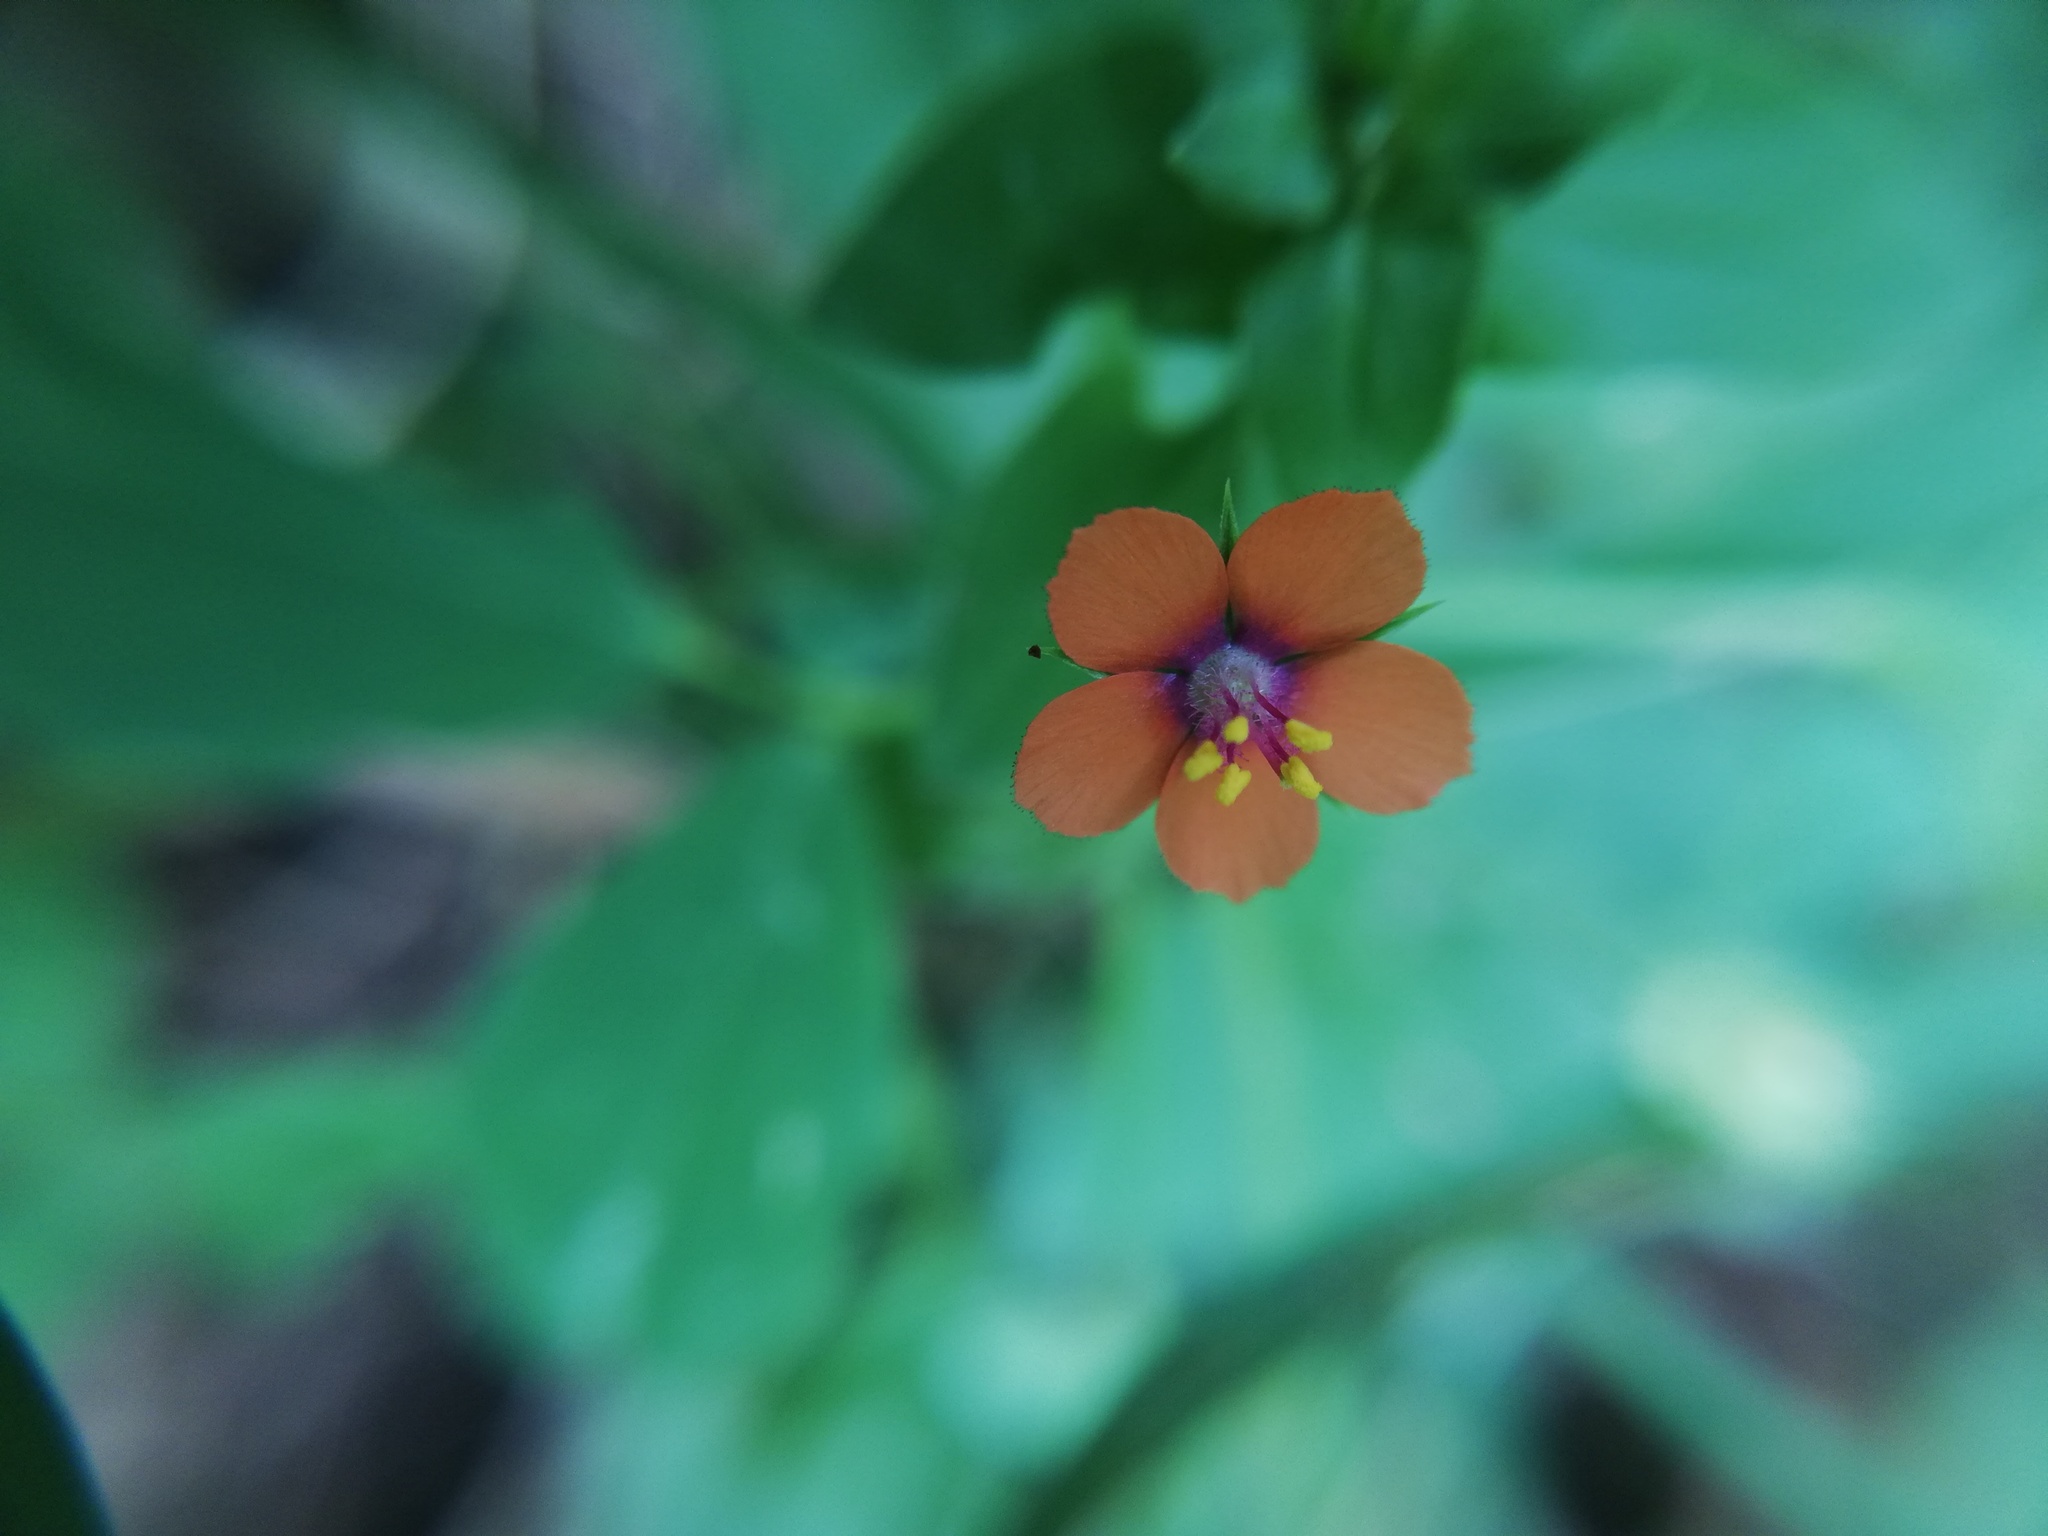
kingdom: Plantae
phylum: Tracheophyta
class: Magnoliopsida
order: Ericales
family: Primulaceae
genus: Lysimachia
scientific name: Lysimachia arvensis
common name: Scarlet pimpernel
